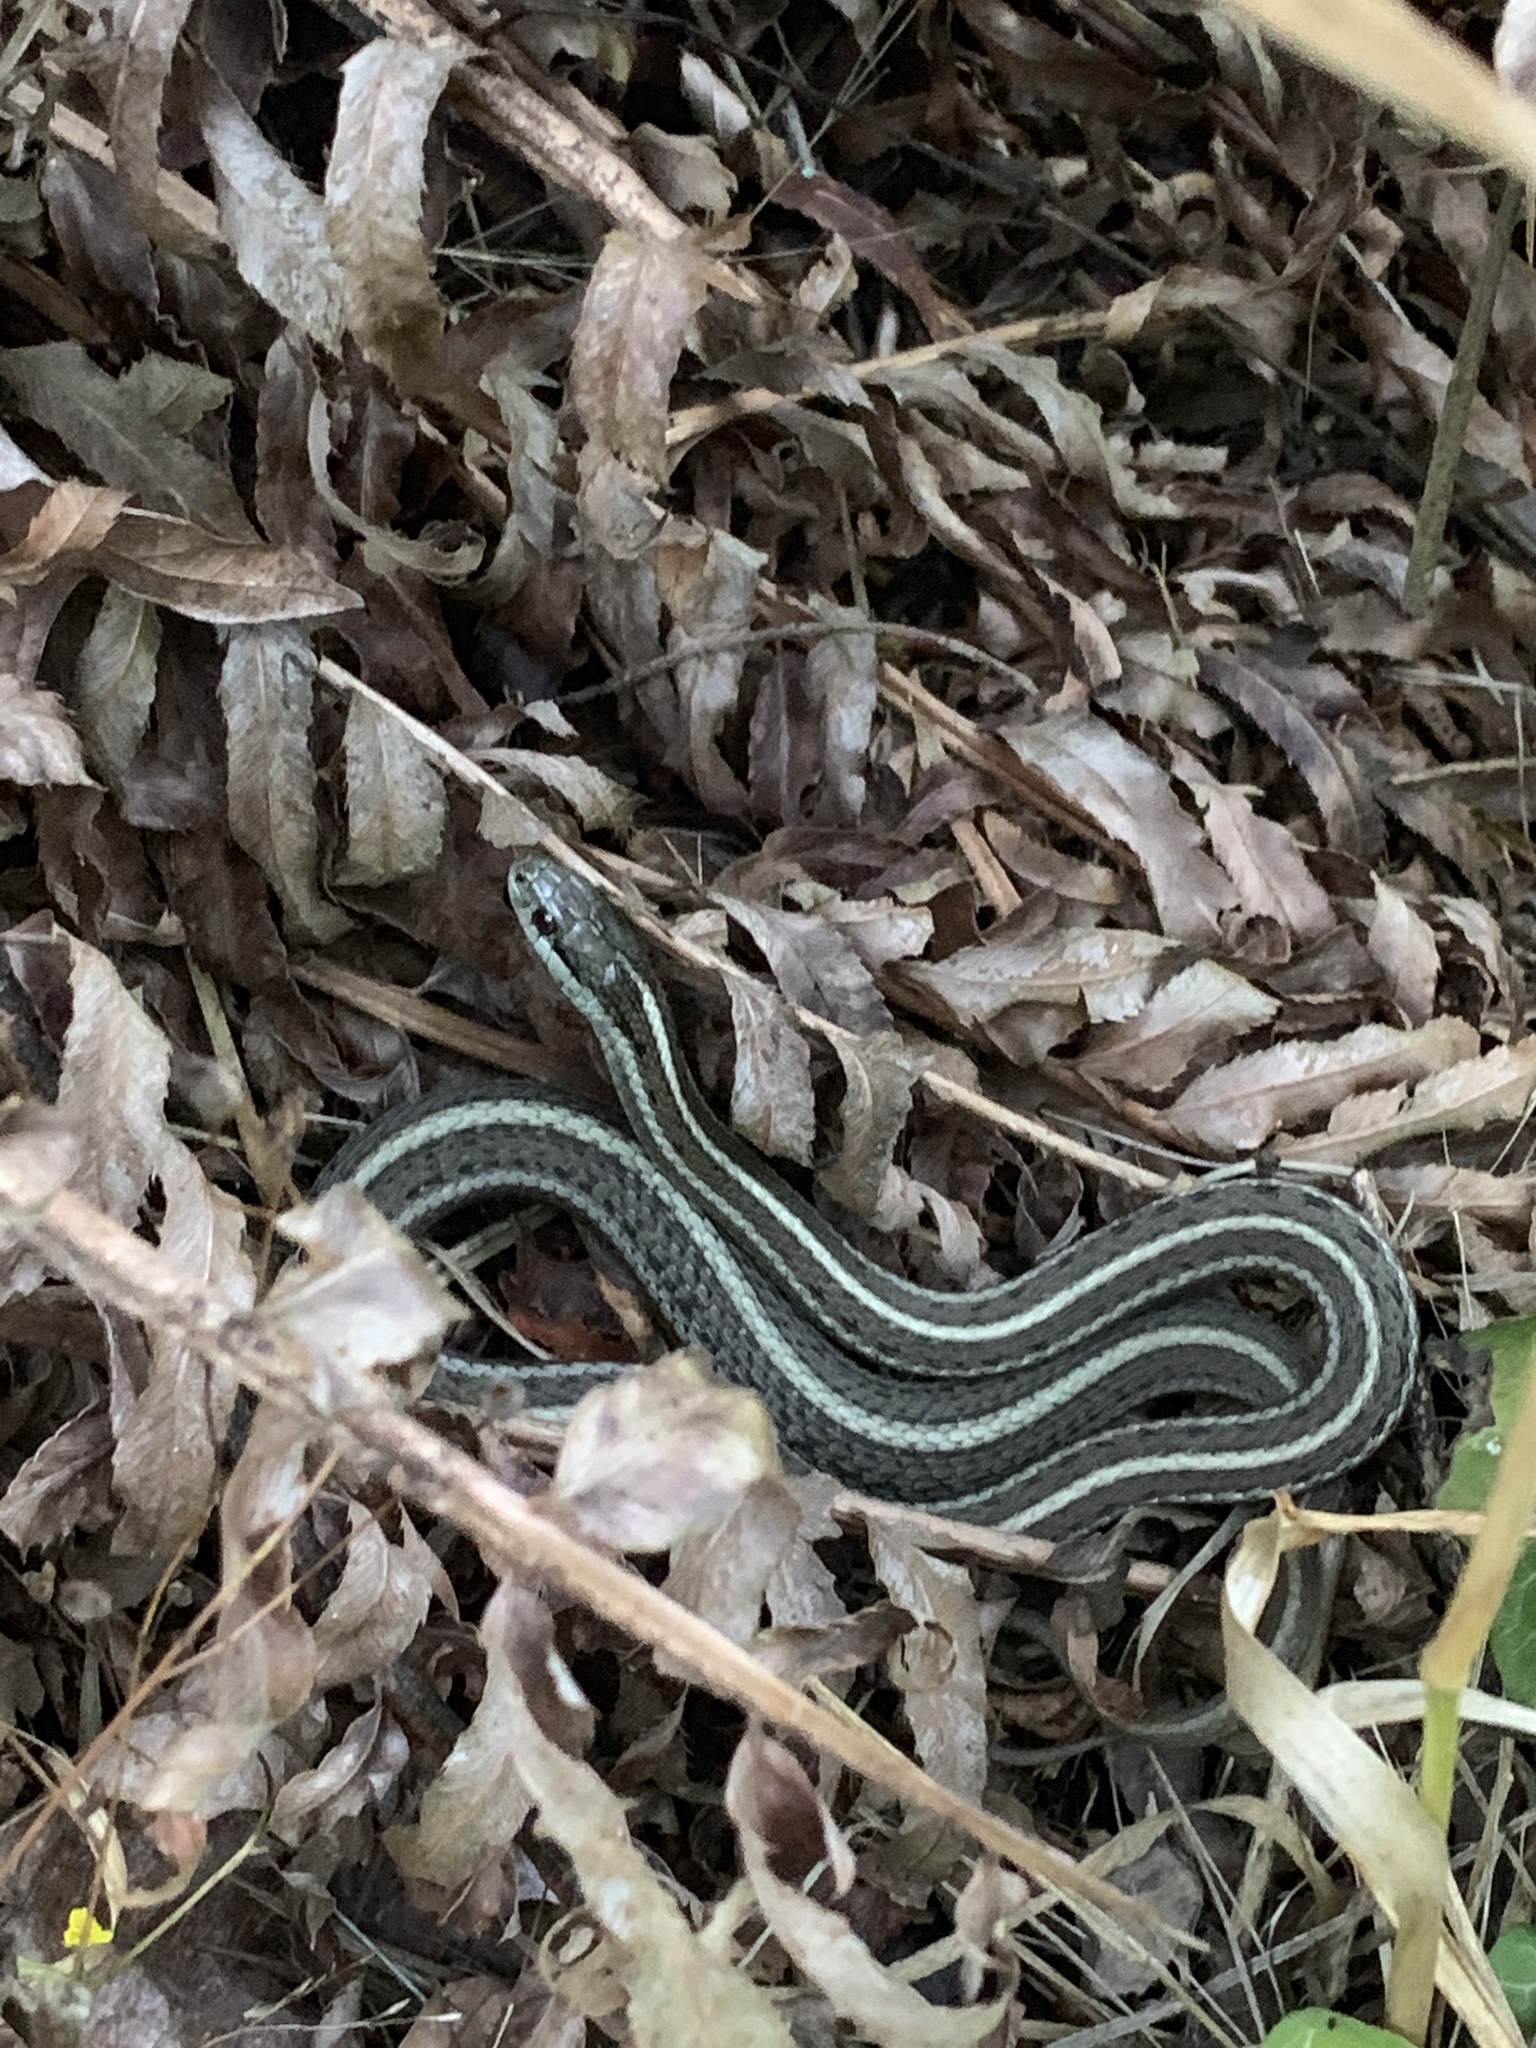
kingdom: Animalia
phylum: Chordata
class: Squamata
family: Colubridae
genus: Thamnophis
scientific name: Thamnophis ordinoides
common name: Northwestern garter snake
